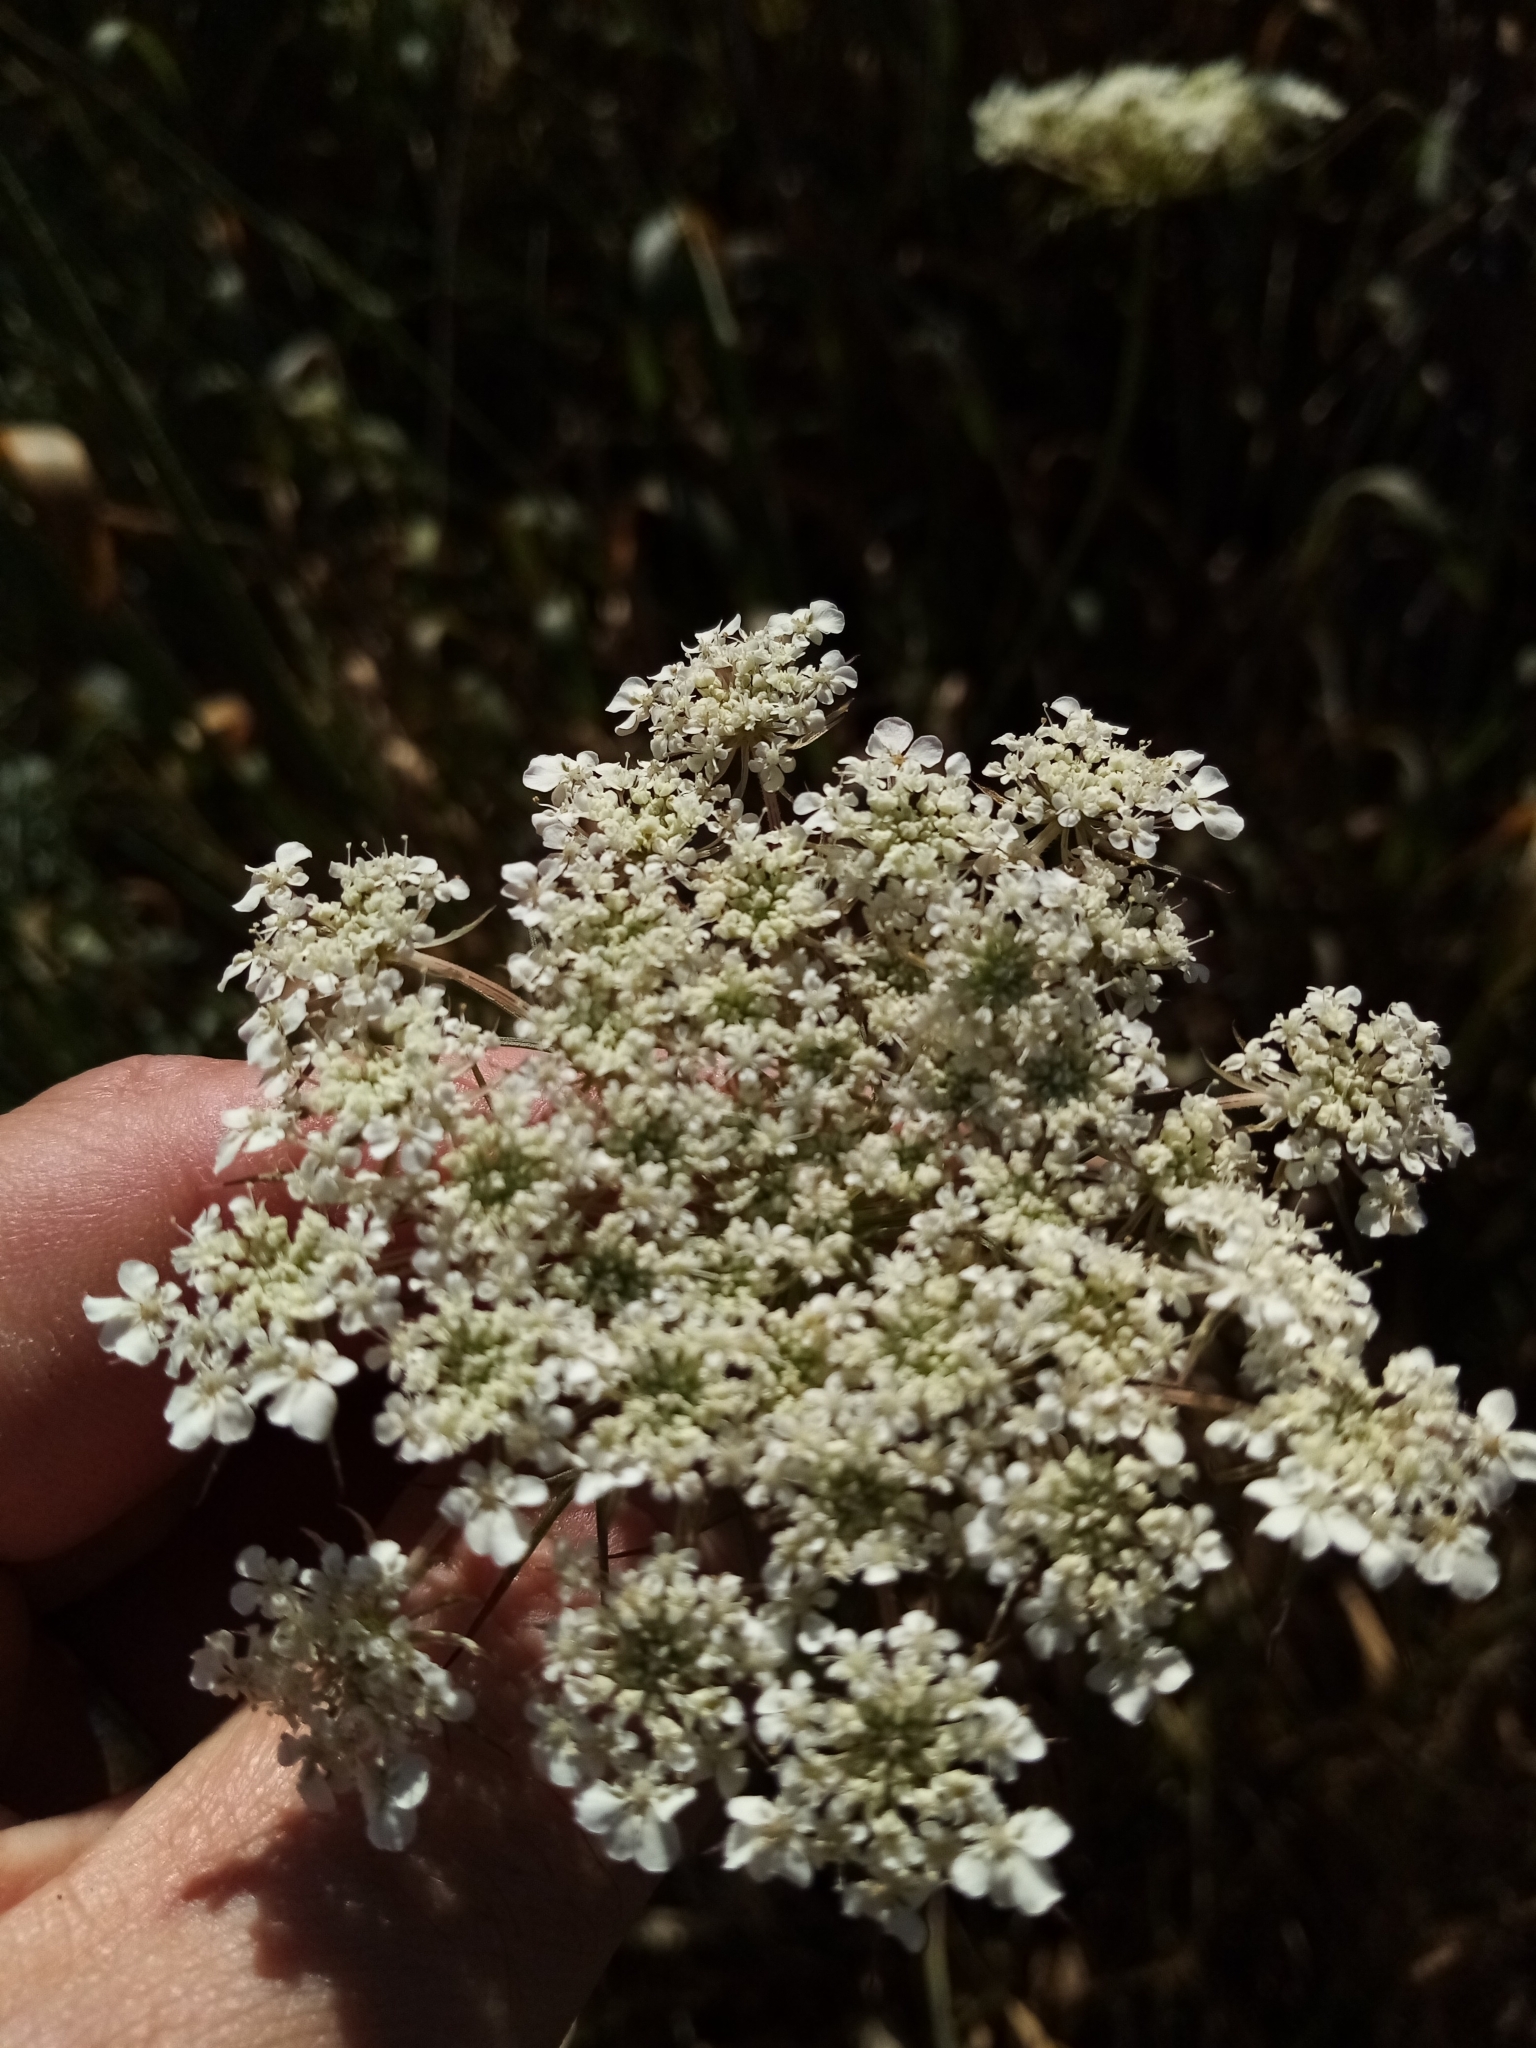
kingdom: Plantae
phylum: Tracheophyta
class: Magnoliopsida
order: Apiales
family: Apiaceae
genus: Daucus
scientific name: Daucus carota
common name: Wild carrot
